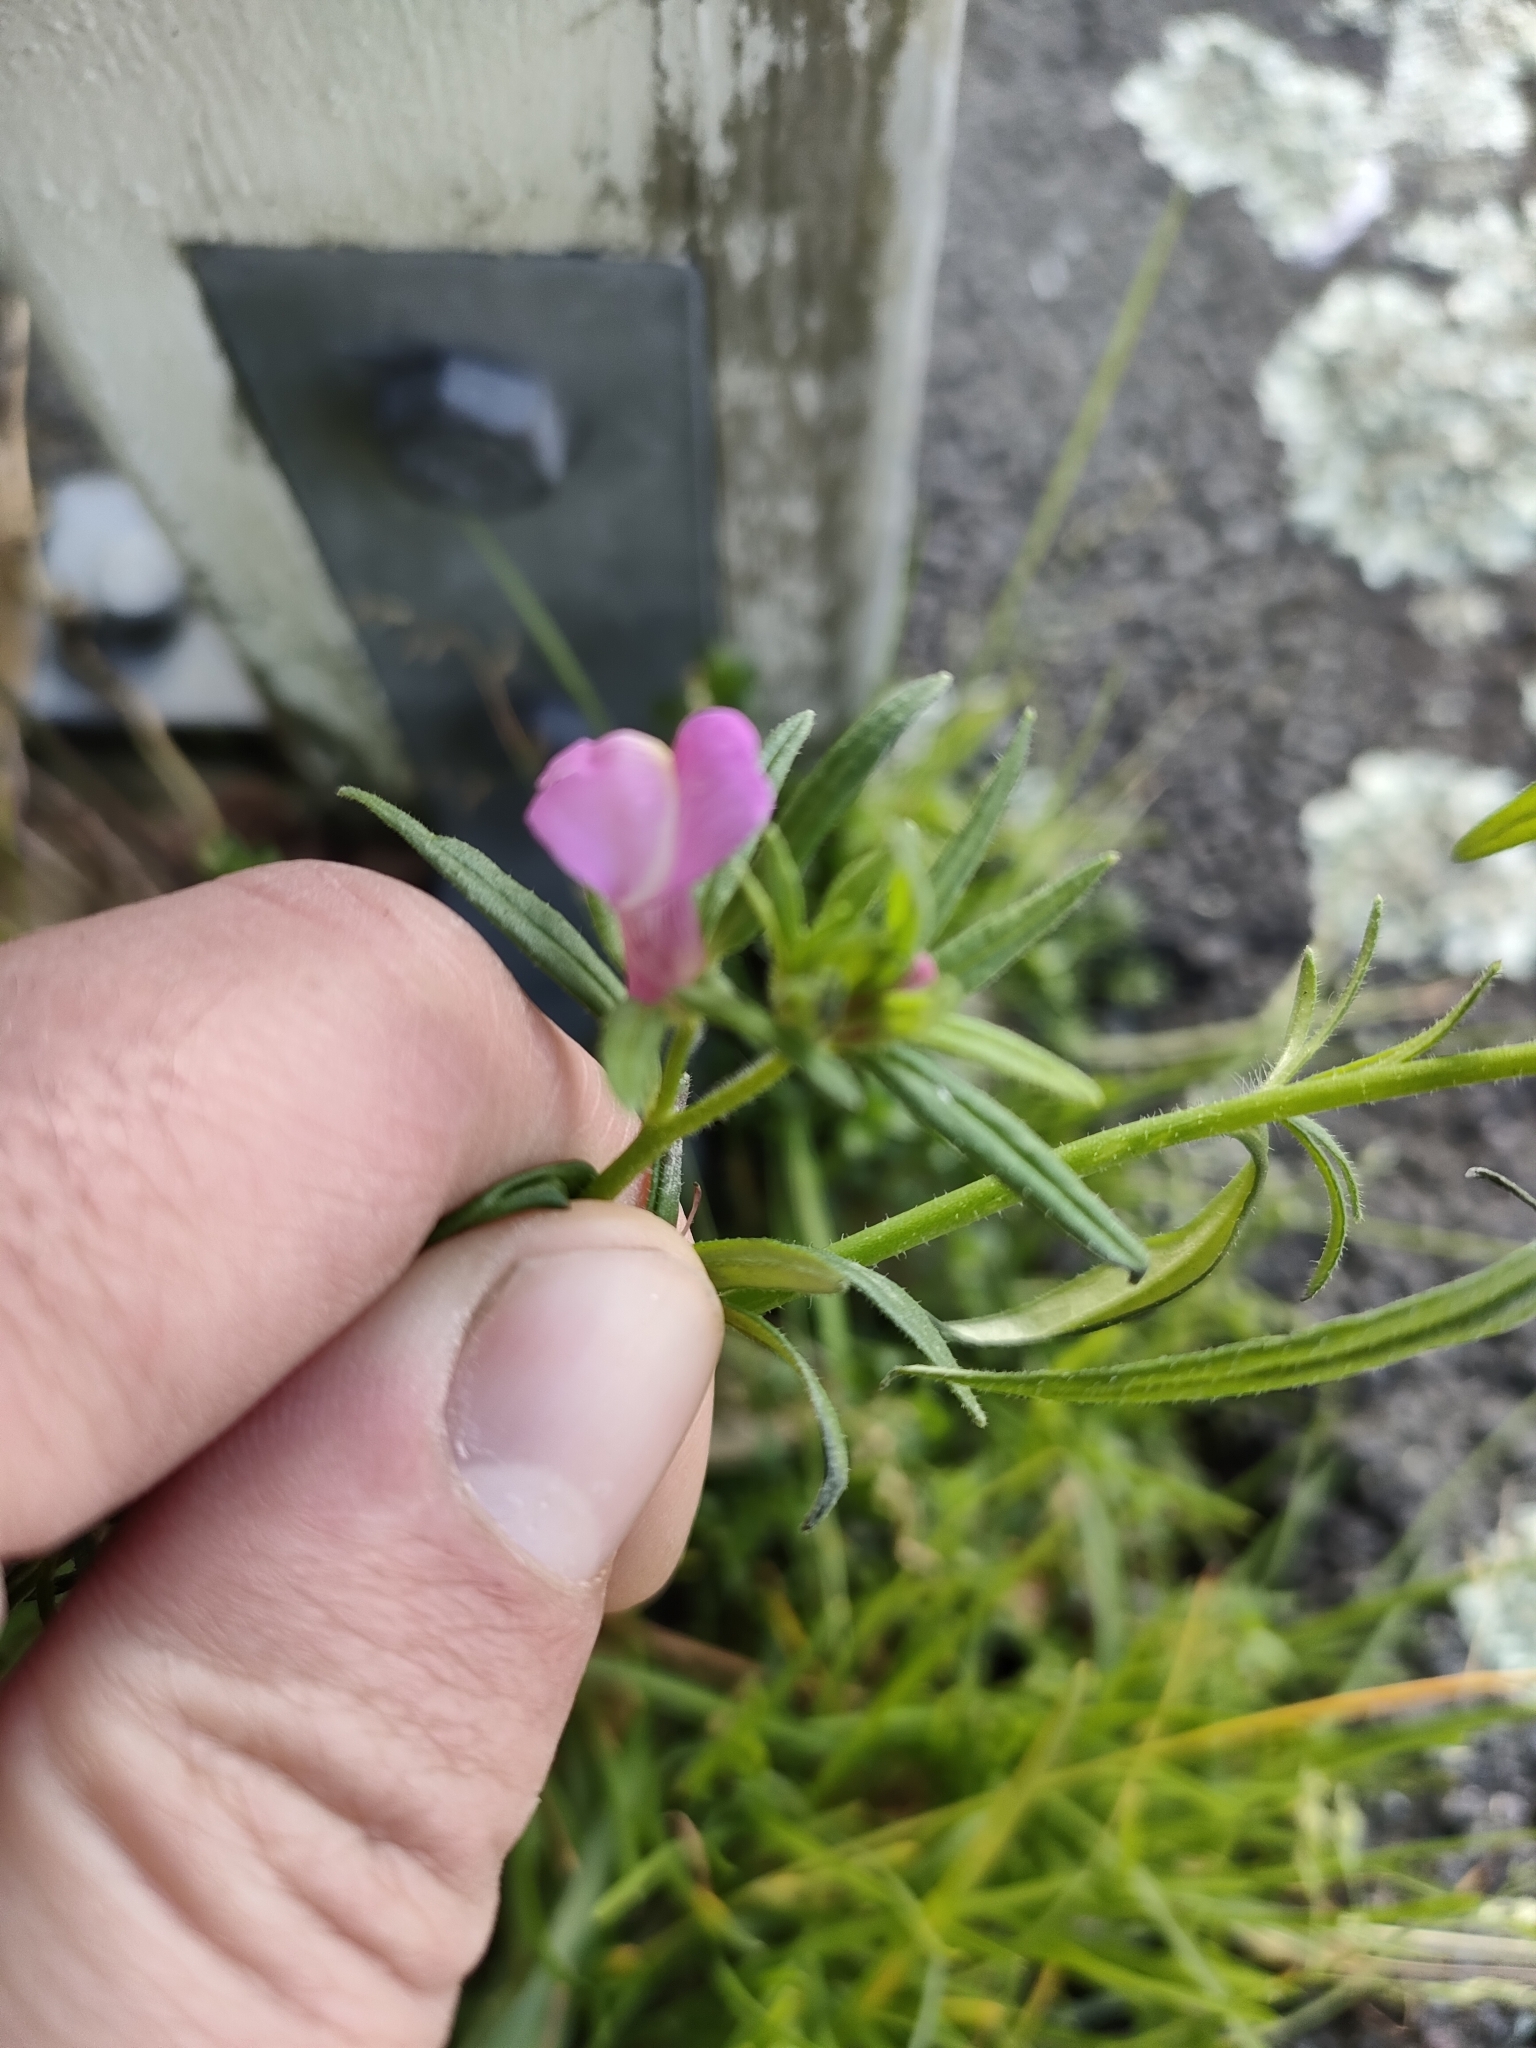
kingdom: Plantae
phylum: Tracheophyta
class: Magnoliopsida
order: Lamiales
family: Plantaginaceae
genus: Misopates
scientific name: Misopates orontium
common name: Weasel's-snout
